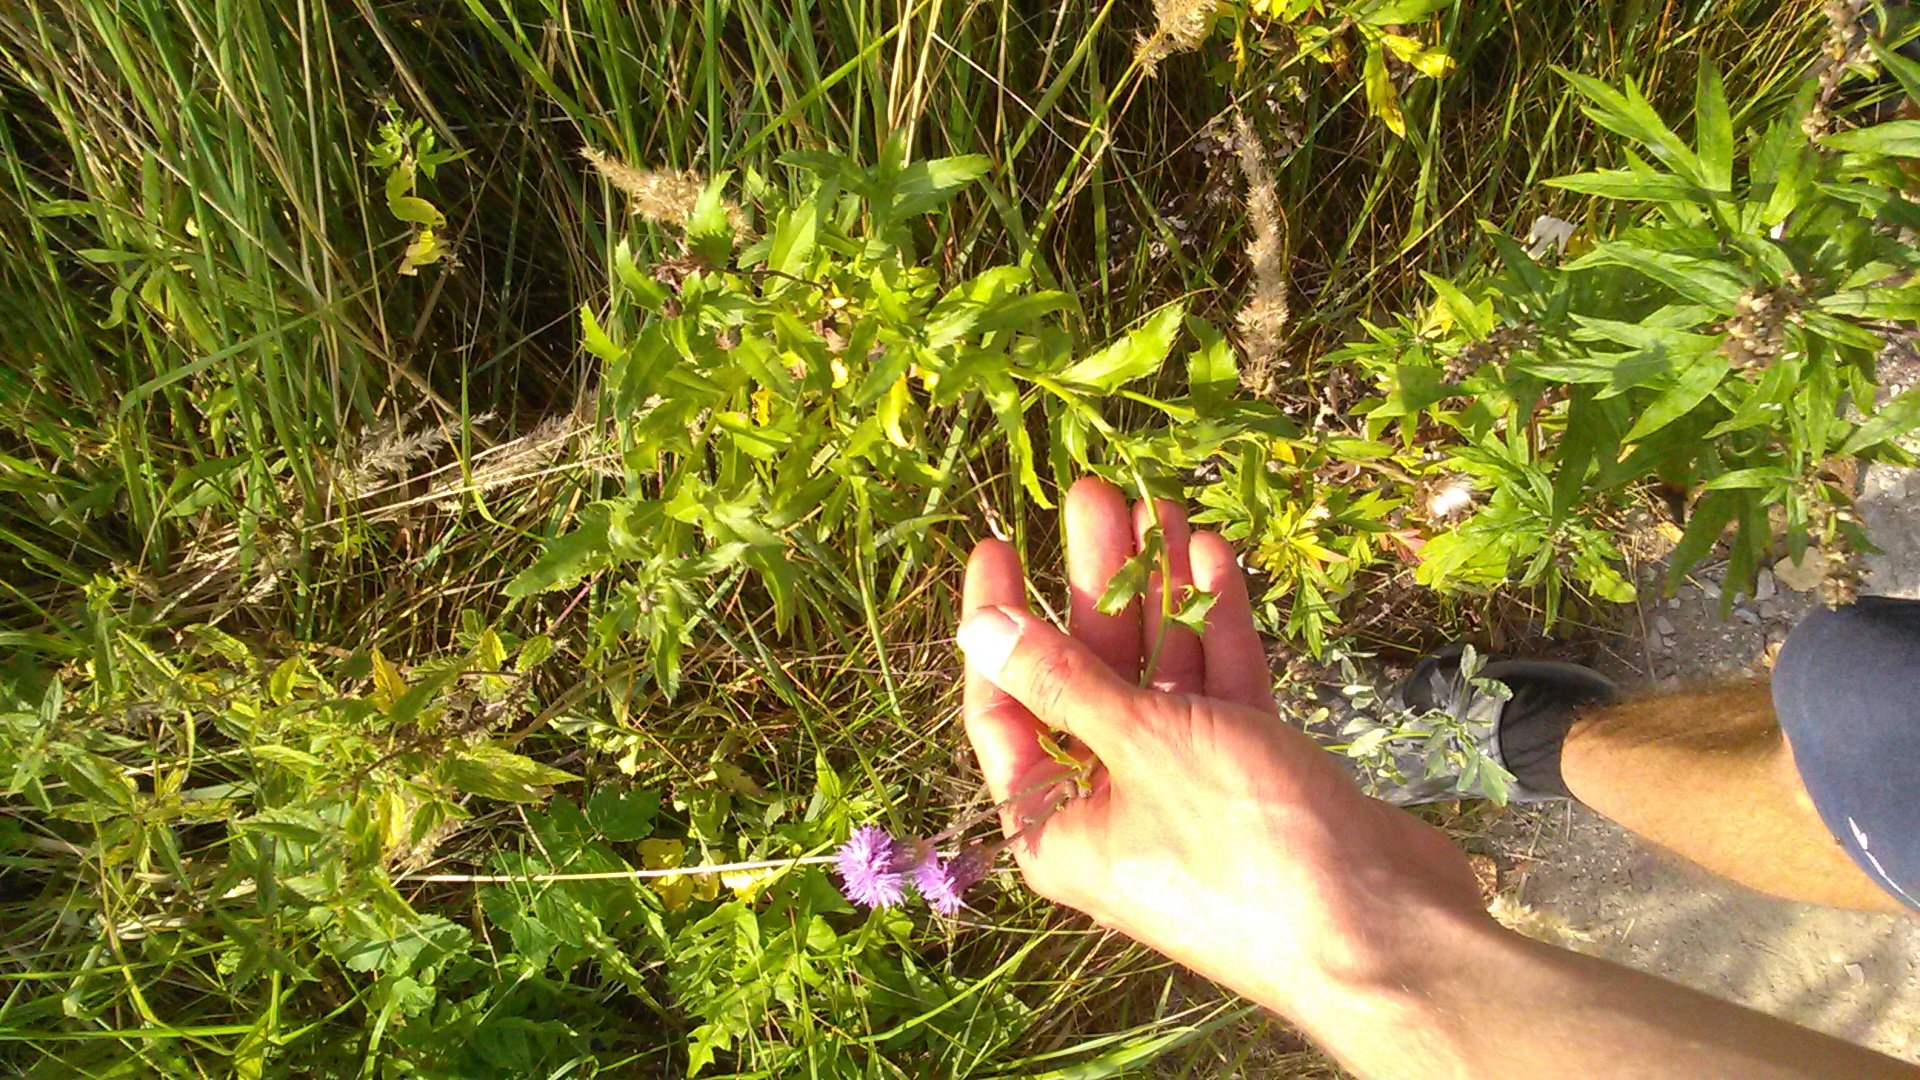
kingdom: Plantae
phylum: Tracheophyta
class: Magnoliopsida
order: Asterales
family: Asteraceae
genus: Cirsium
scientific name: Cirsium arvense
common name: Creeping thistle
